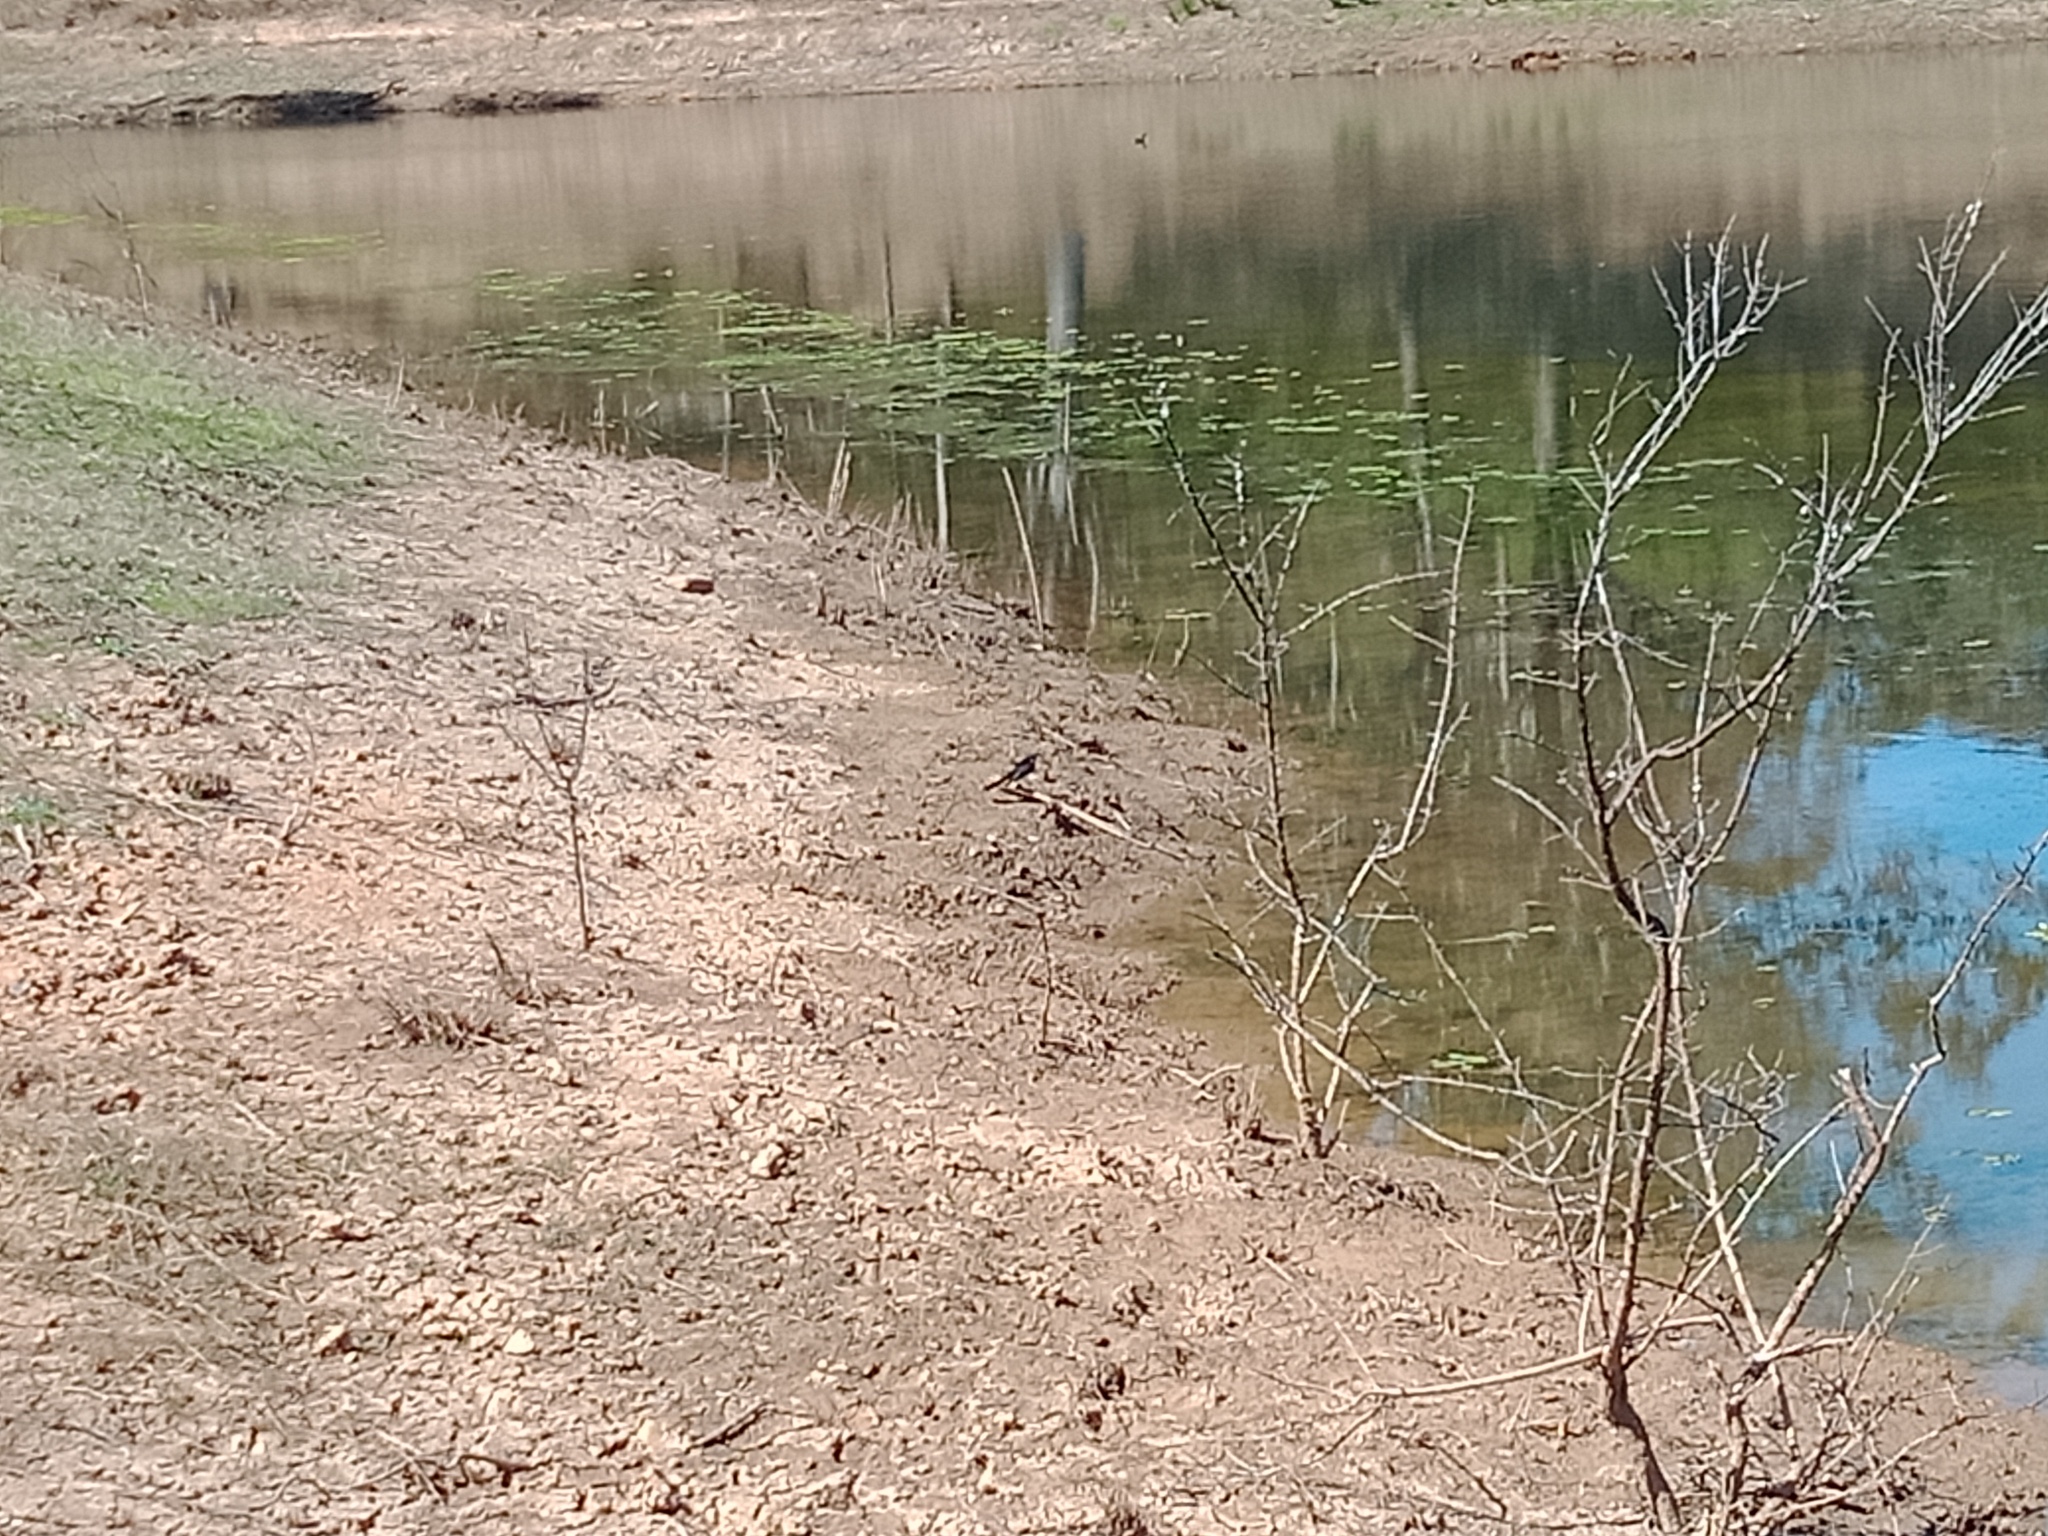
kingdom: Animalia
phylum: Chordata
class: Aves
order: Passeriformes
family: Rhipiduridae
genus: Rhipidura
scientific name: Rhipidura leucophrys
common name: Willie wagtail
